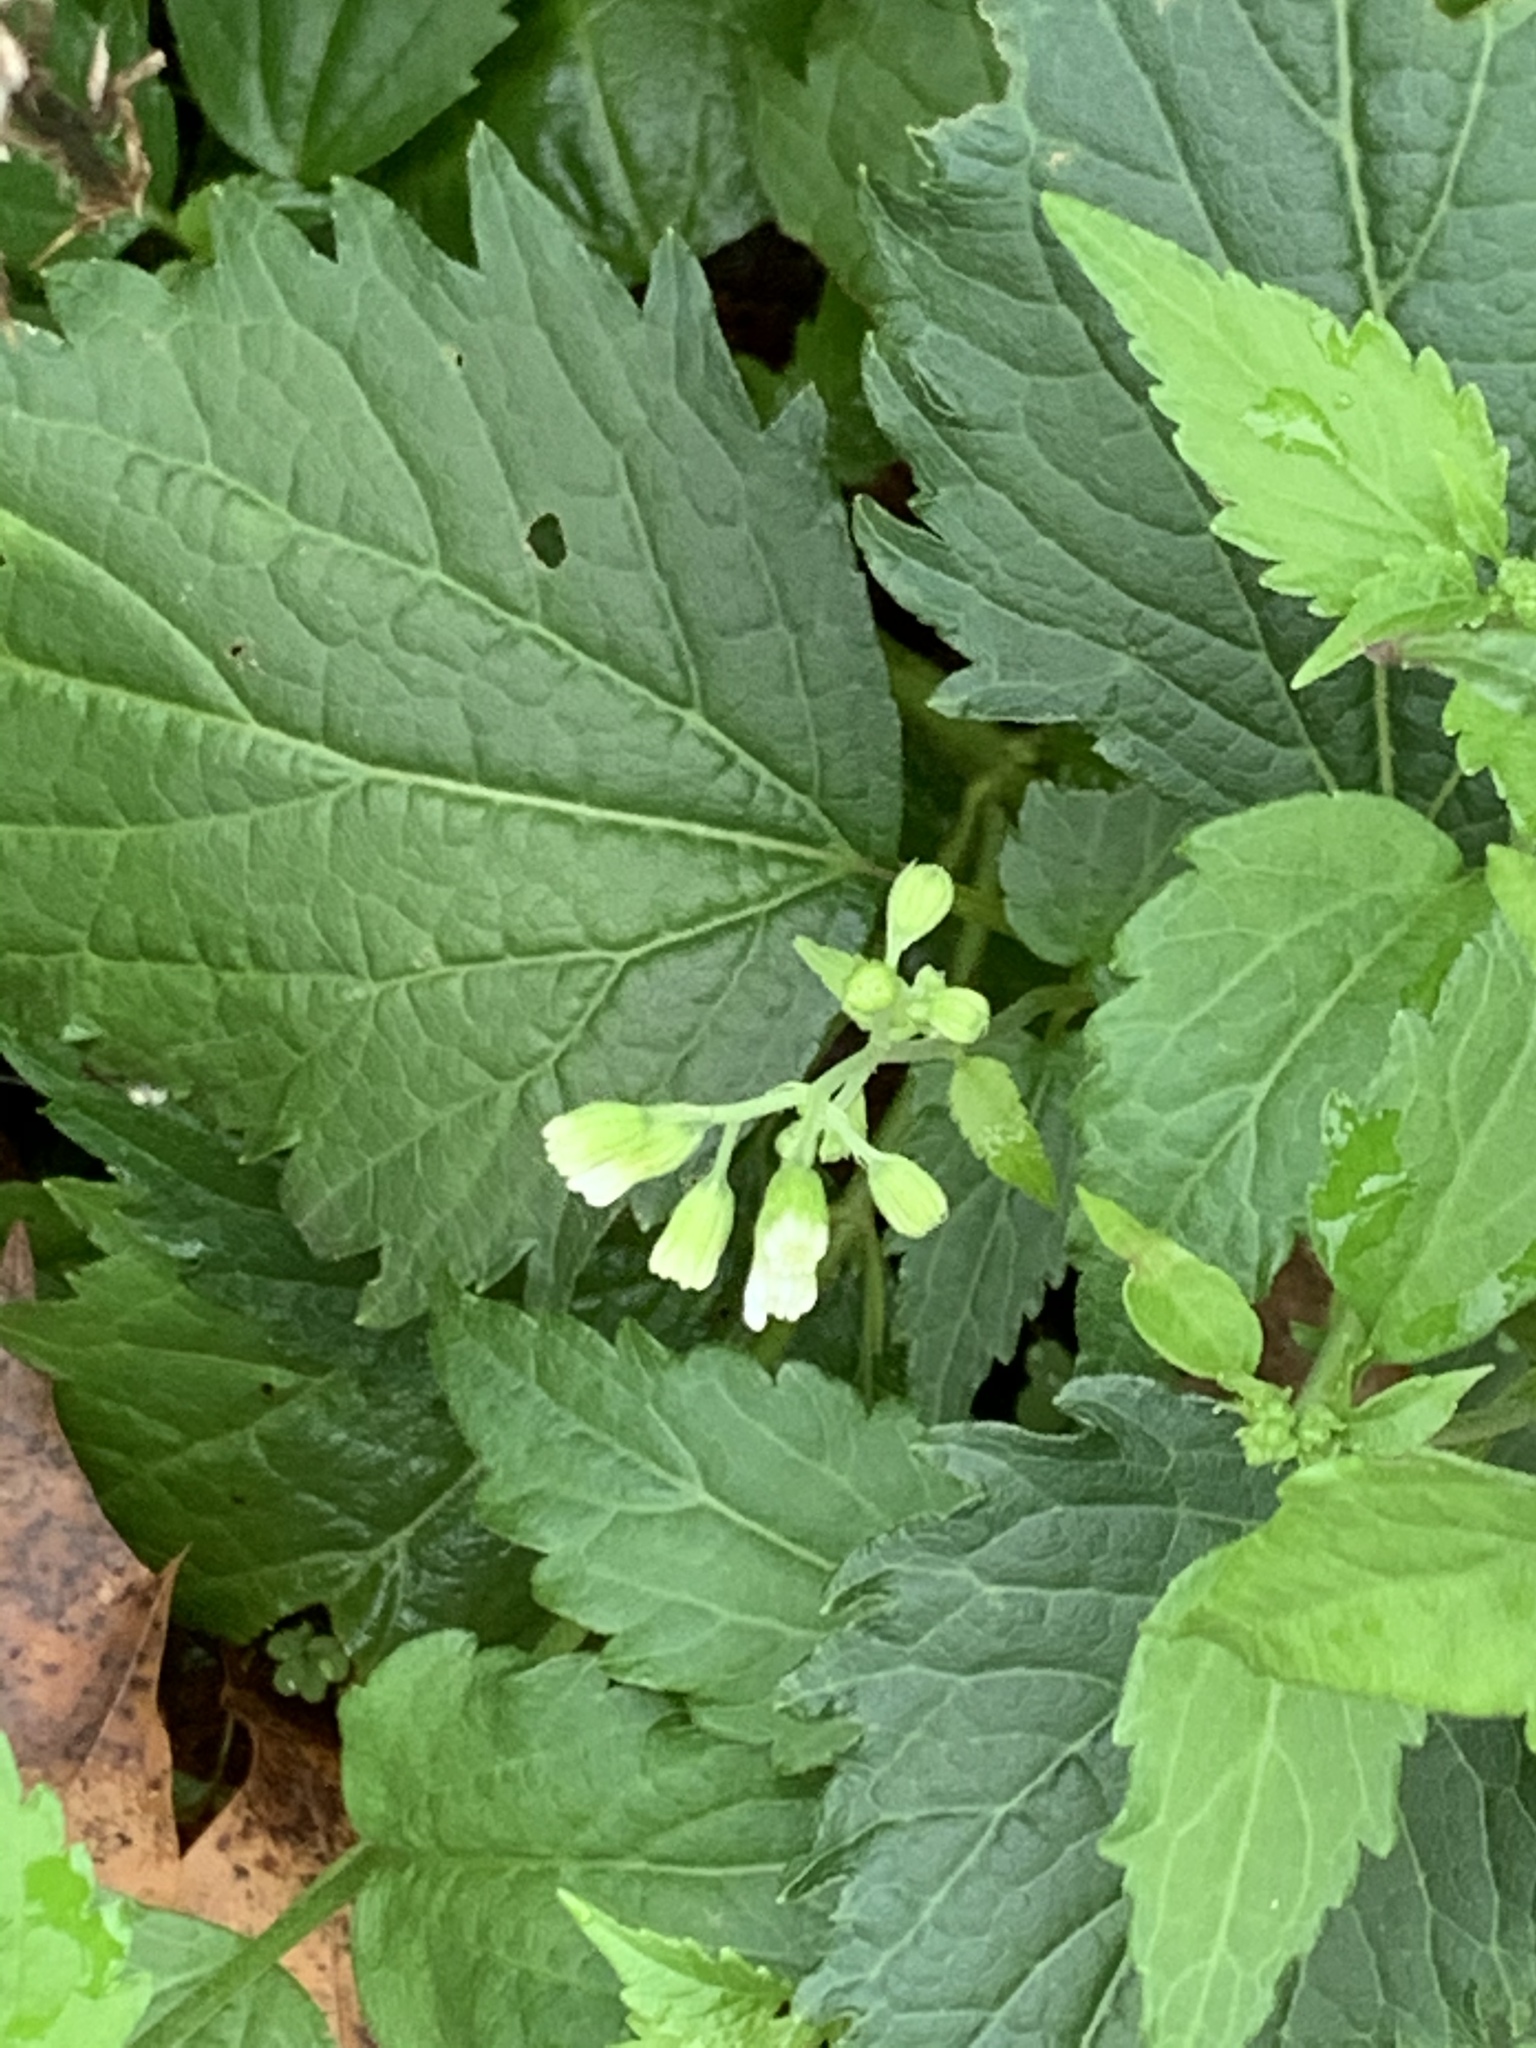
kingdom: Plantae
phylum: Tracheophyta
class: Magnoliopsida
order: Asterales
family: Asteraceae
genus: Ageratina
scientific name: Ageratina altissima
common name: White snakeroot
